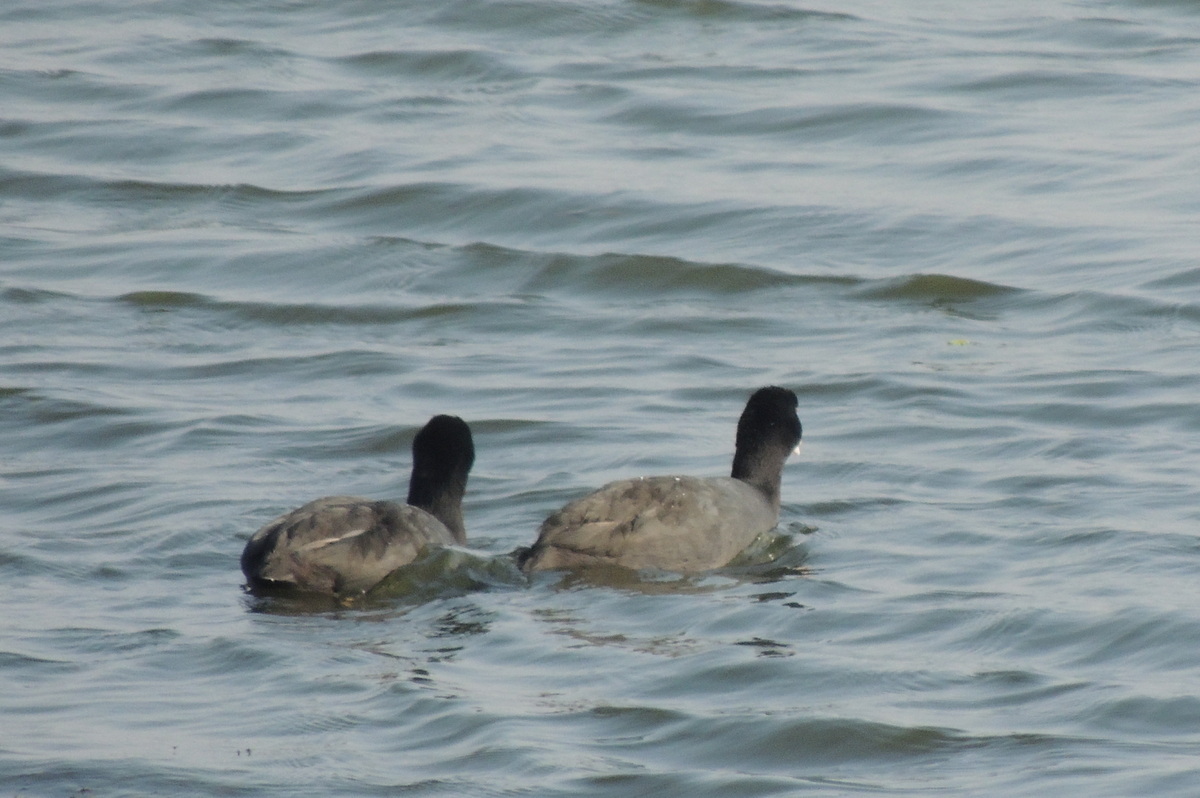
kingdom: Animalia
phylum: Chordata
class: Aves
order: Gruiformes
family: Rallidae
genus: Fulica
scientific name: Fulica atra
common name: Eurasian coot
